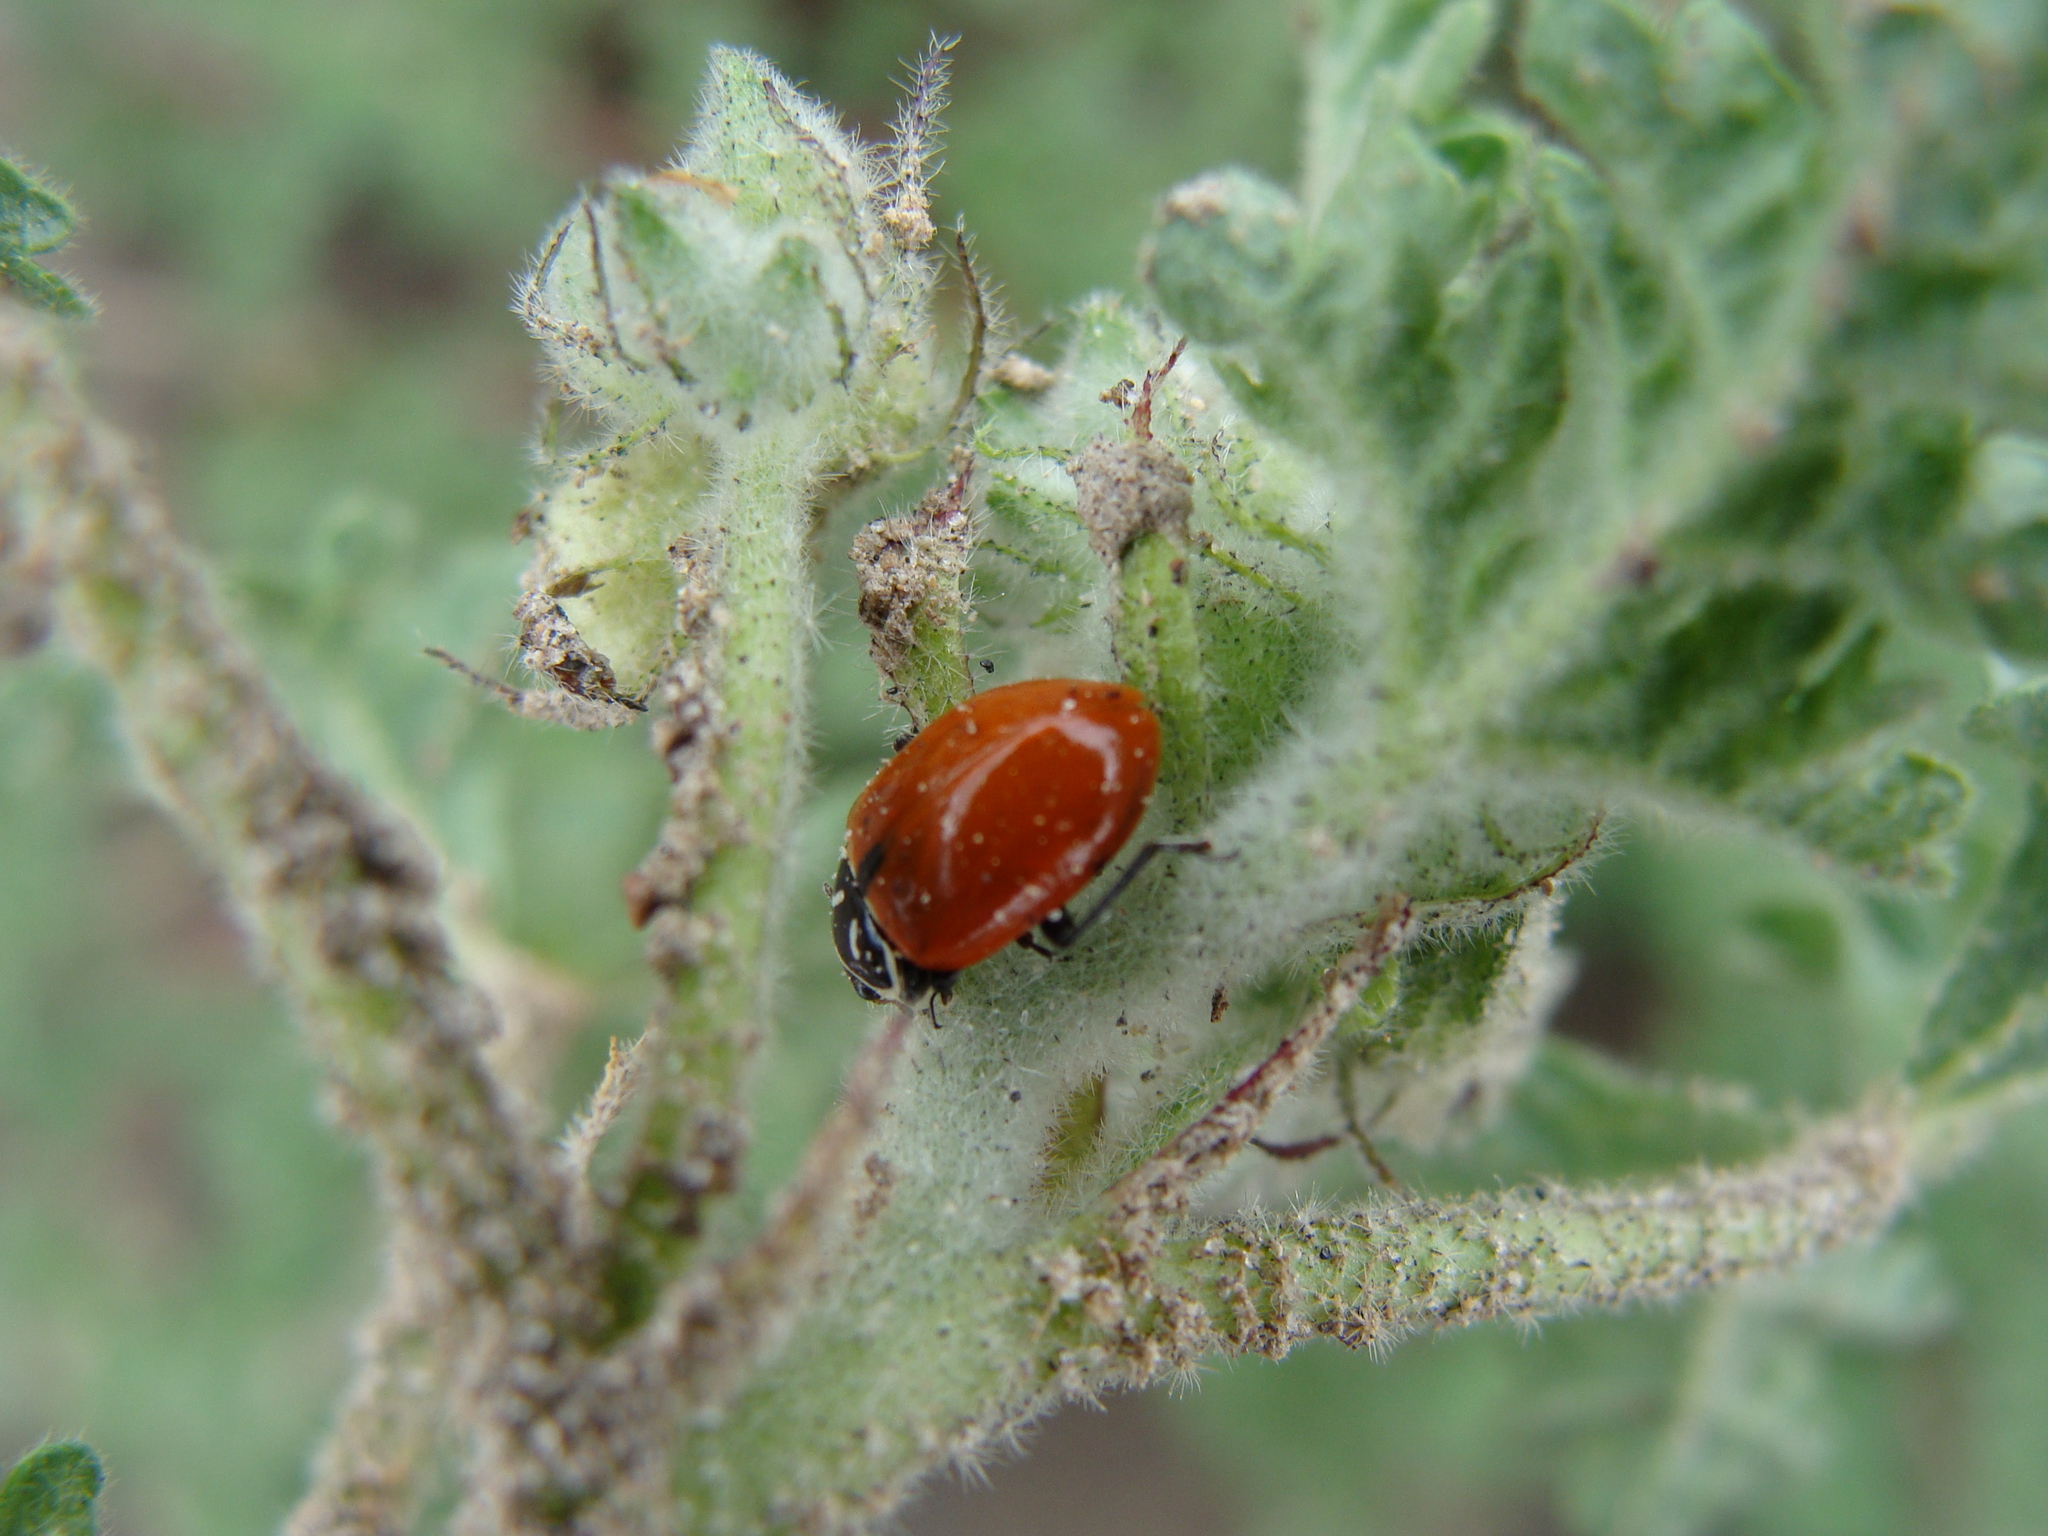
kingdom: Animalia
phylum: Arthropoda
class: Insecta
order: Coleoptera
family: Coccinellidae
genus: Hippodamia
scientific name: Hippodamia convergens
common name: Convergent lady beetle
